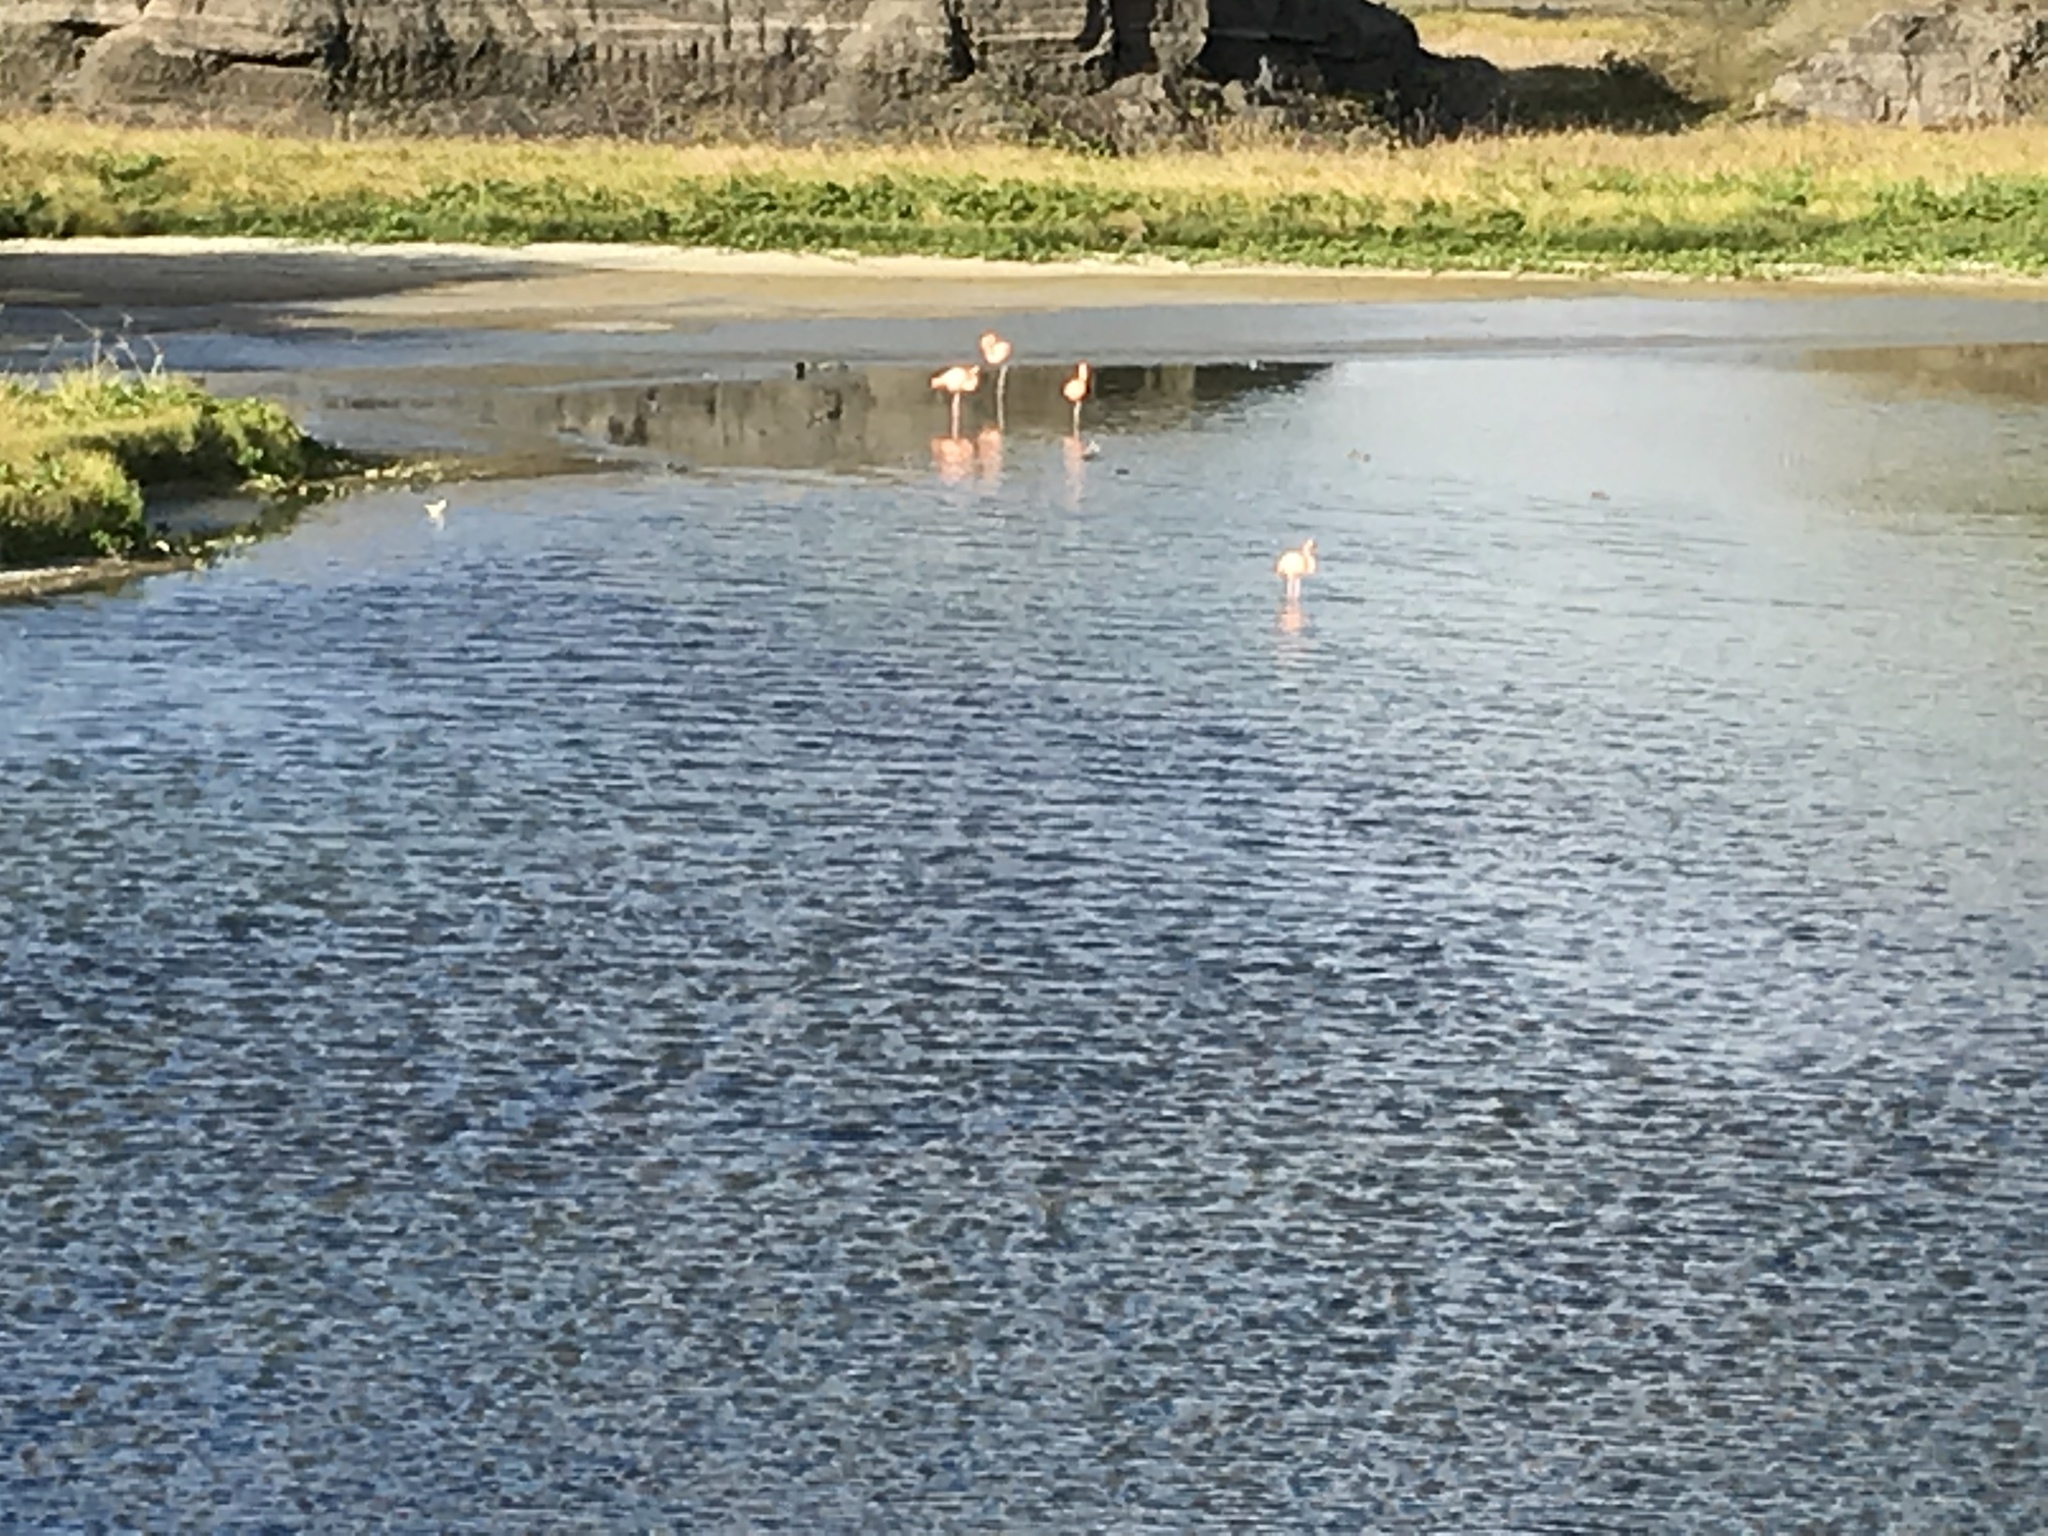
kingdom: Animalia
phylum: Chordata
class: Aves
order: Phoenicopteriformes
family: Phoenicopteridae
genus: Phoenicopterus
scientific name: Phoenicopterus ruber
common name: American flamingo
